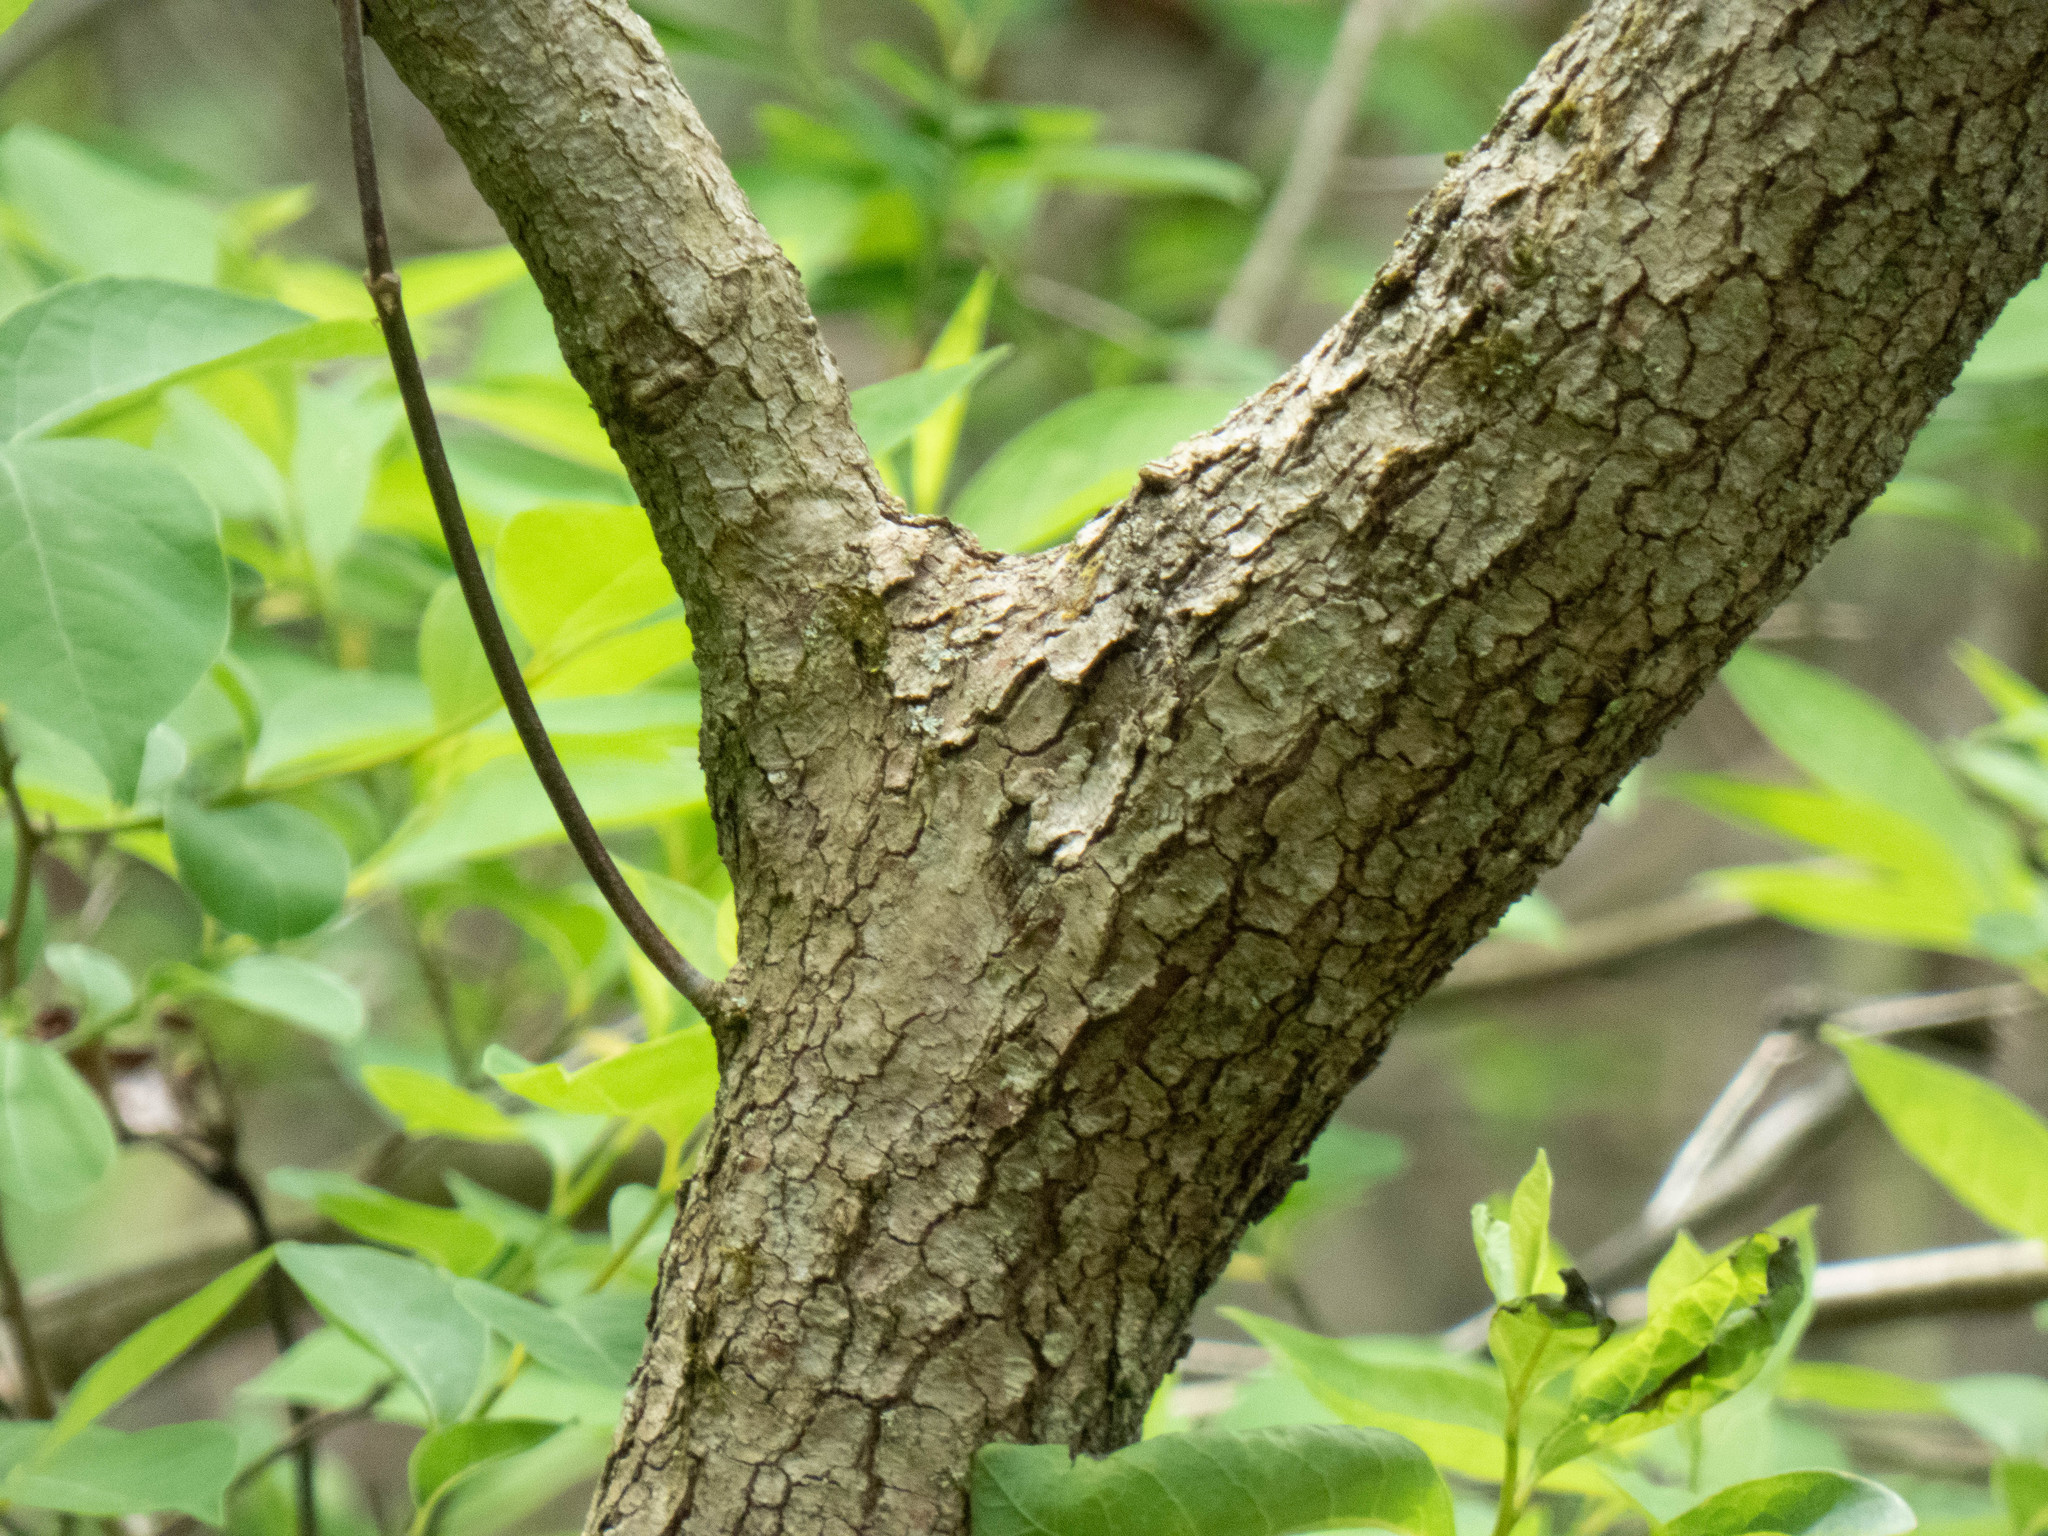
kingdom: Plantae
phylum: Tracheophyta
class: Magnoliopsida
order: Cornales
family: Cornaceae
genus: Cornus
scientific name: Cornus florida
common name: Flowering dogwood
